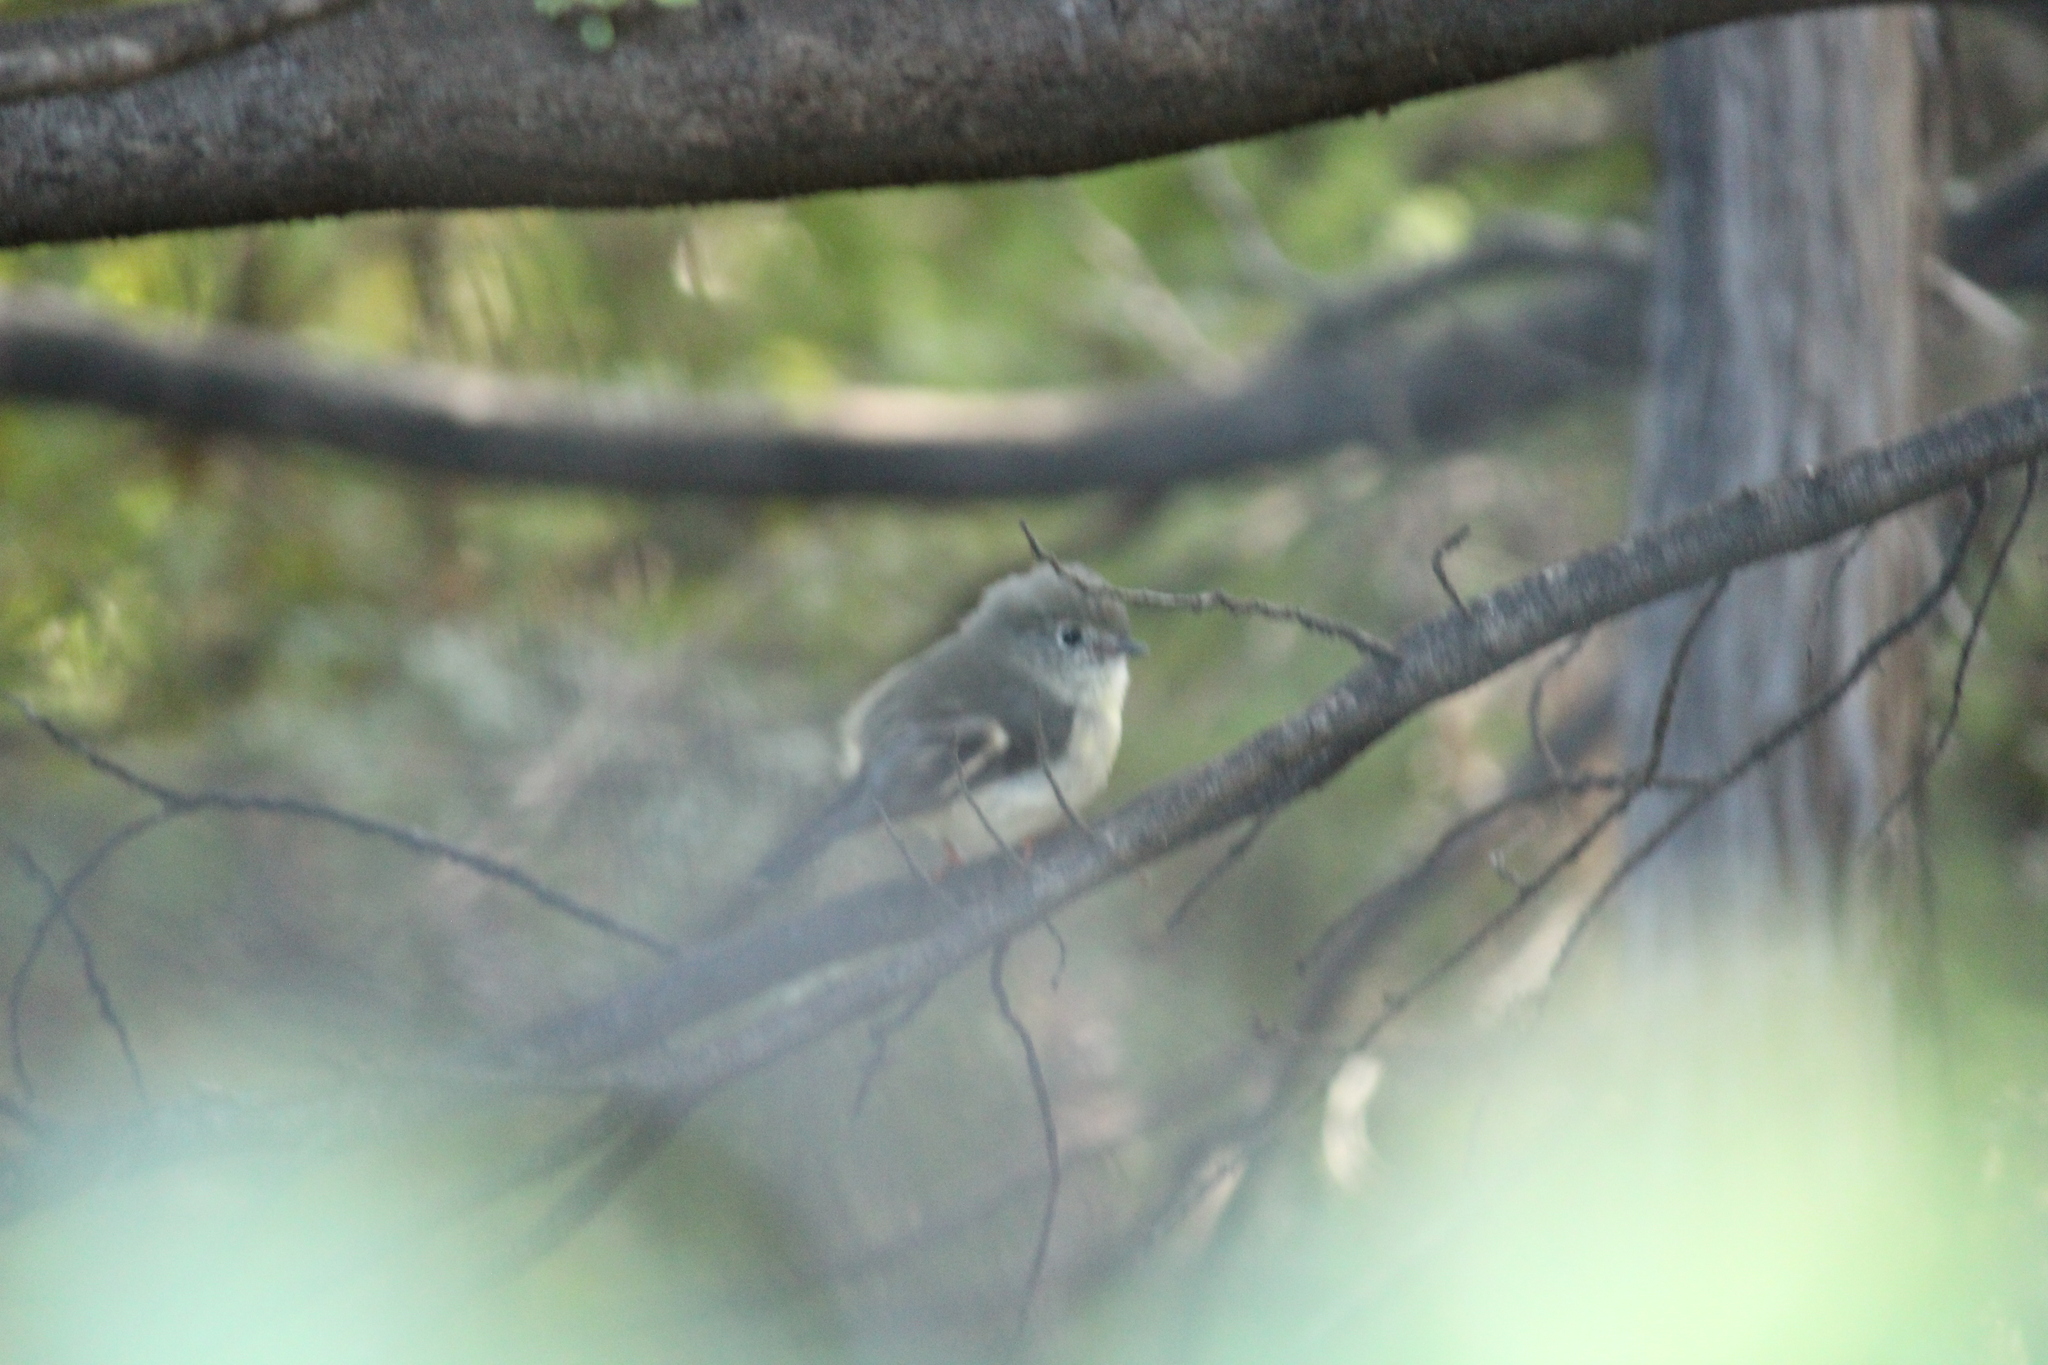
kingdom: Animalia
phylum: Chordata
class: Aves
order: Passeriformes
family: Petroicidae
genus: Petroica
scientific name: Petroica macrocephala
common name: Tomtit
